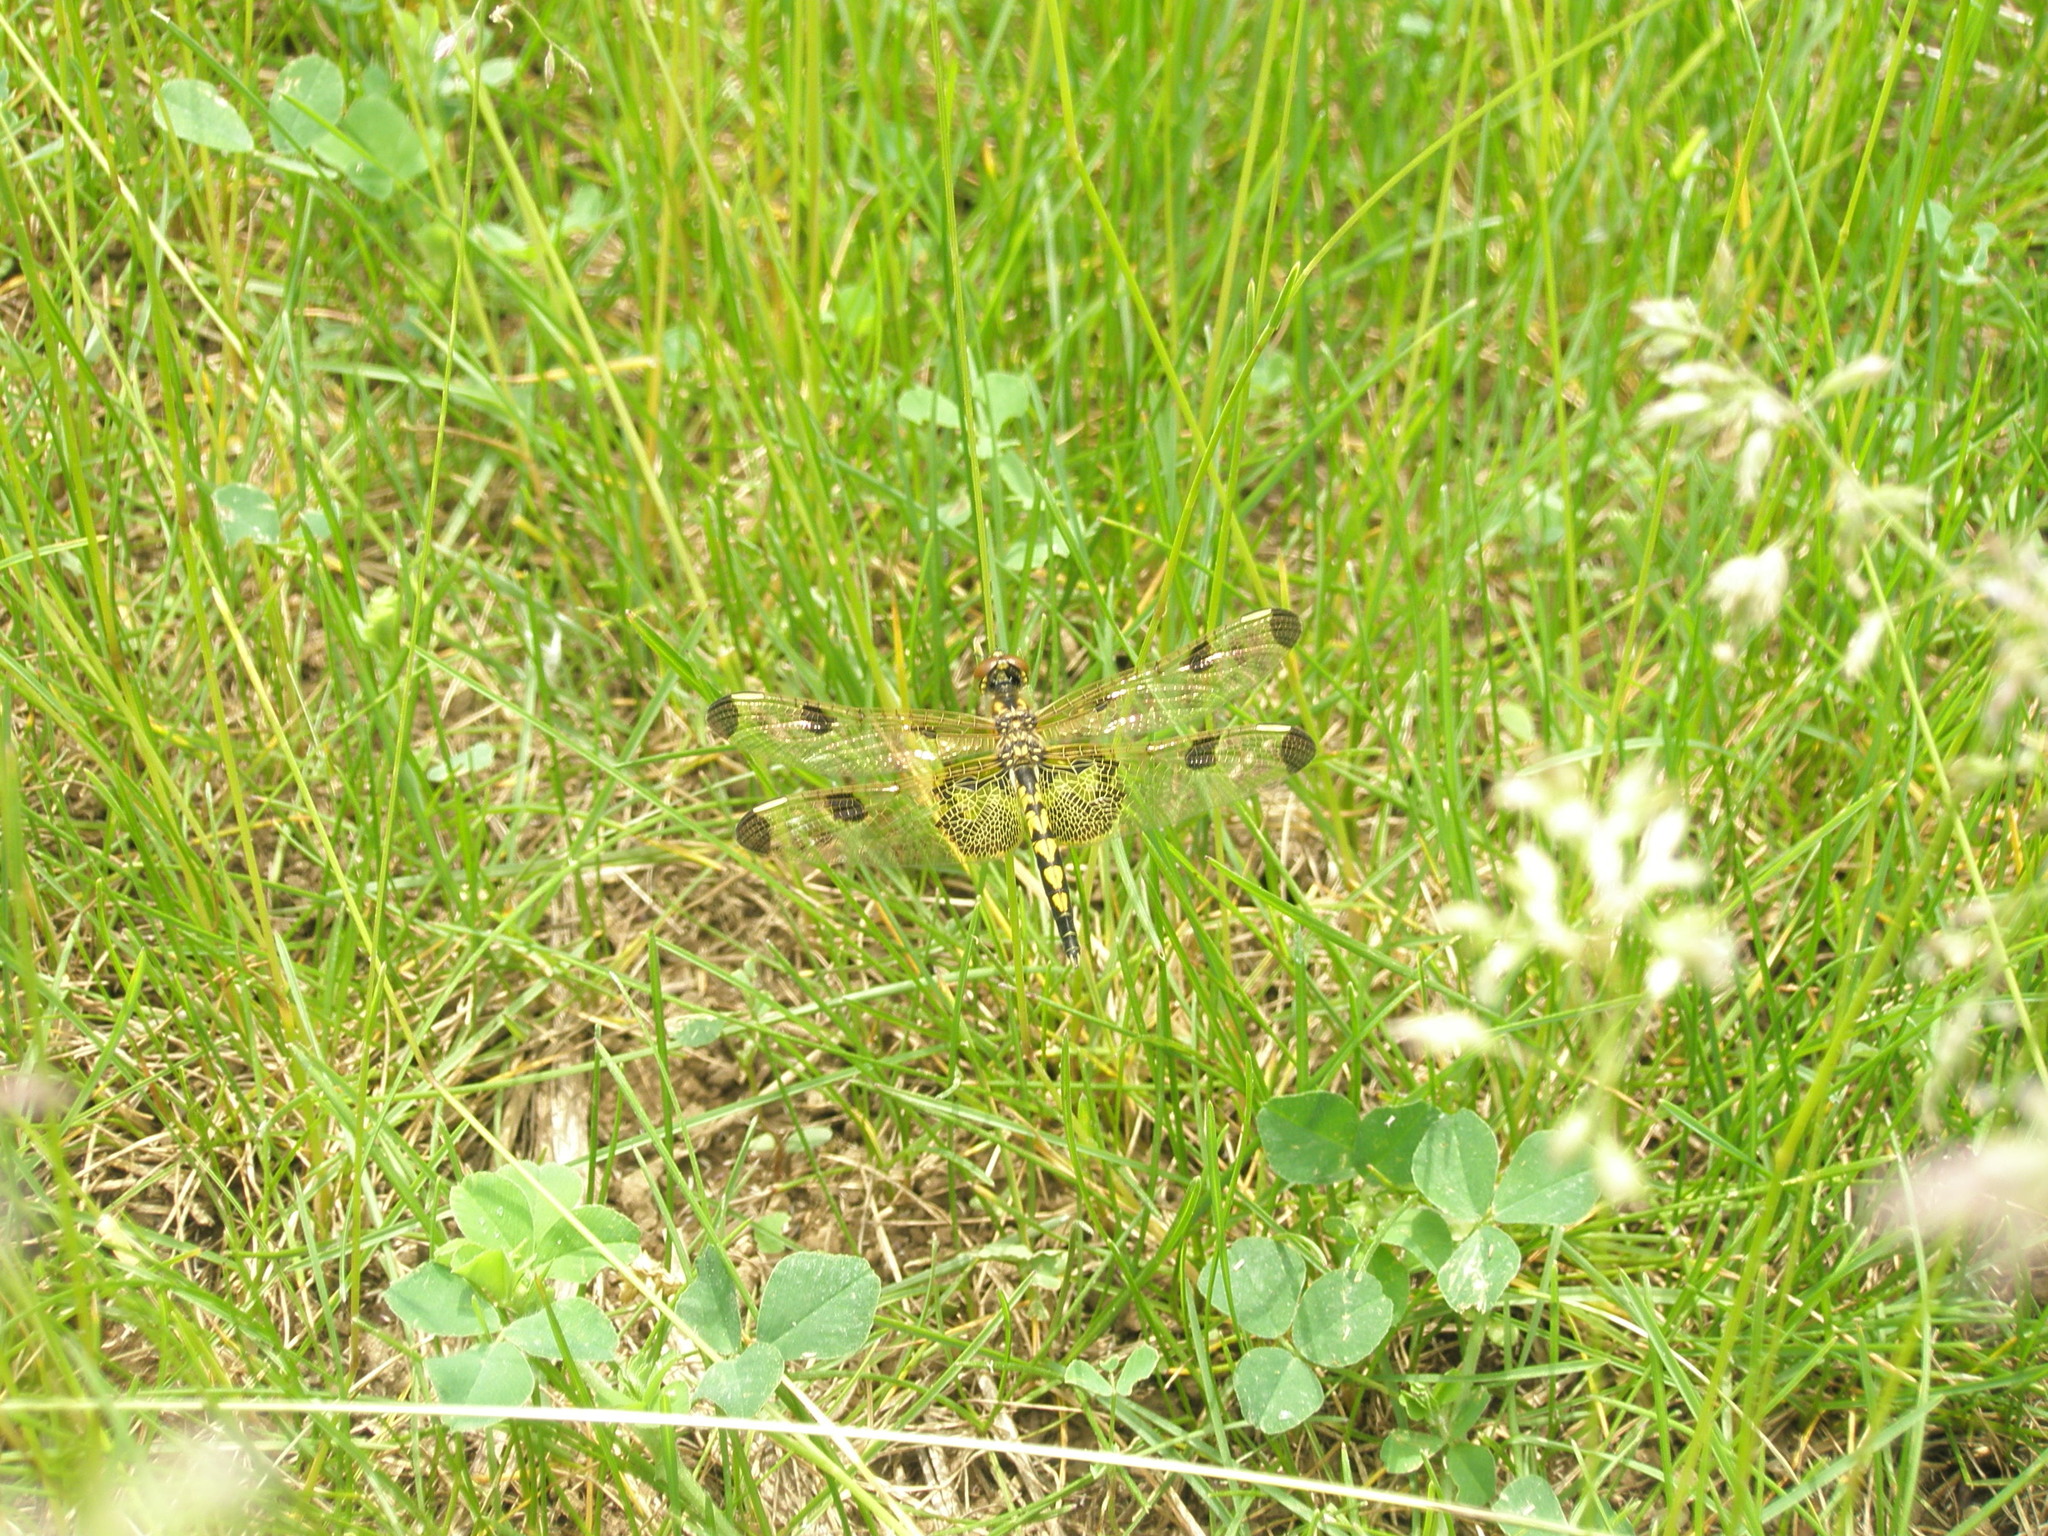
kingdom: Animalia
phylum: Arthropoda
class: Insecta
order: Odonata
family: Libellulidae
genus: Celithemis
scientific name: Celithemis elisa
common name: Calico pennant
